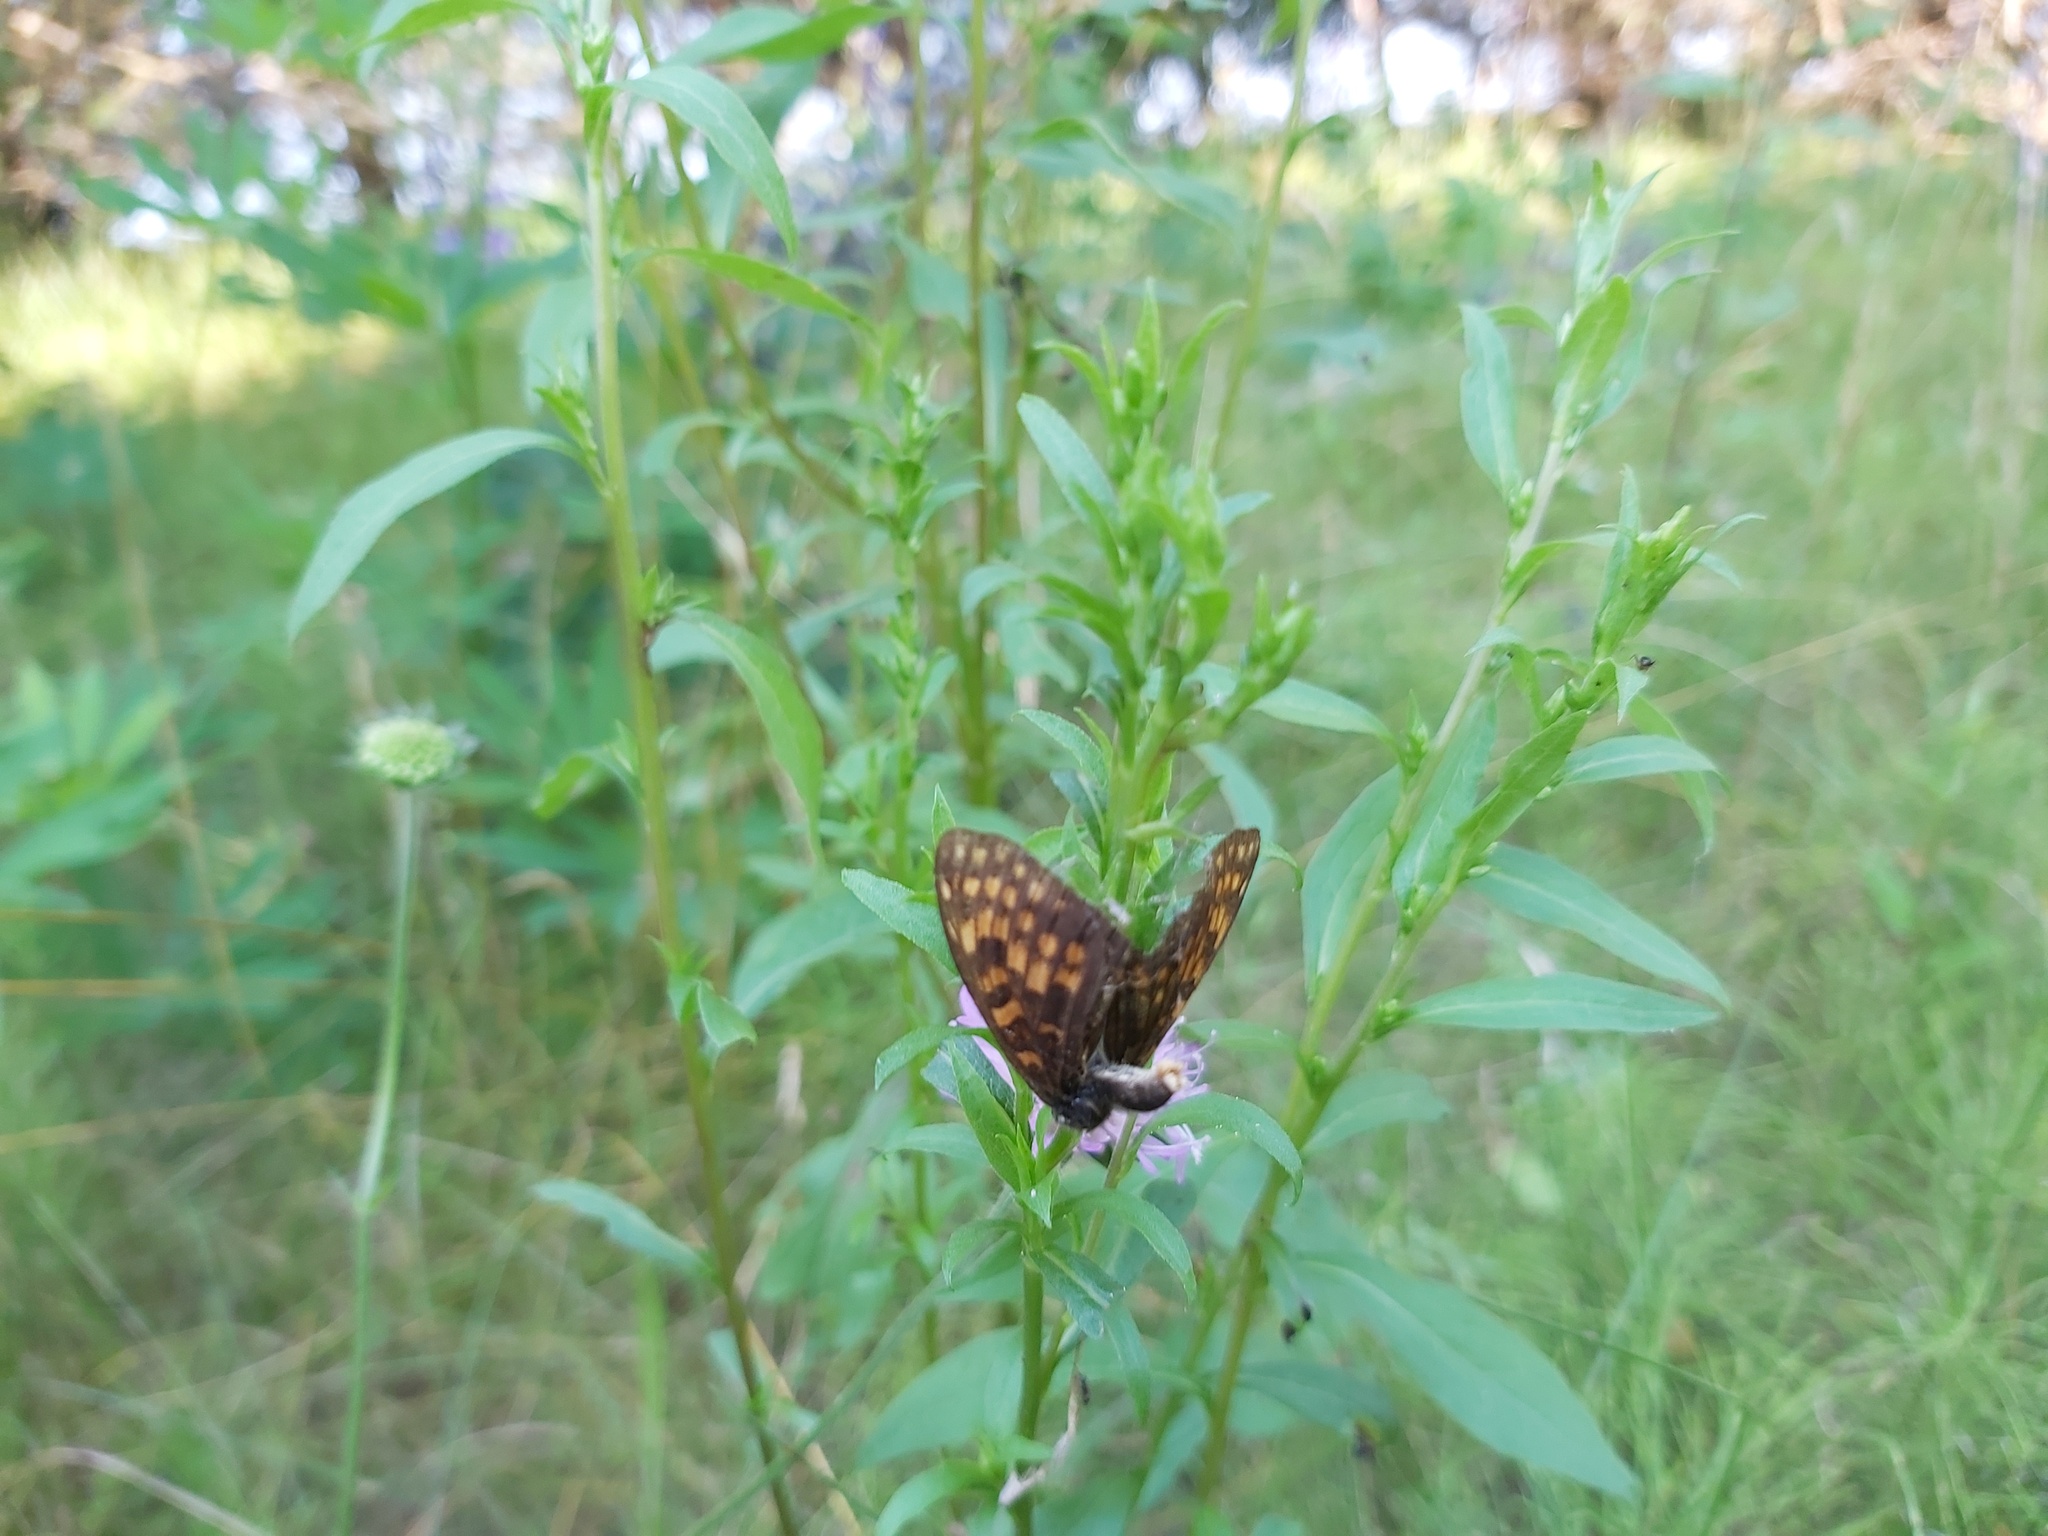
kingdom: Animalia
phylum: Arthropoda
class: Insecta
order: Lepidoptera
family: Nymphalidae
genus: Melitaea
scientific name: Melitaea athalia
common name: Heath fritillary
